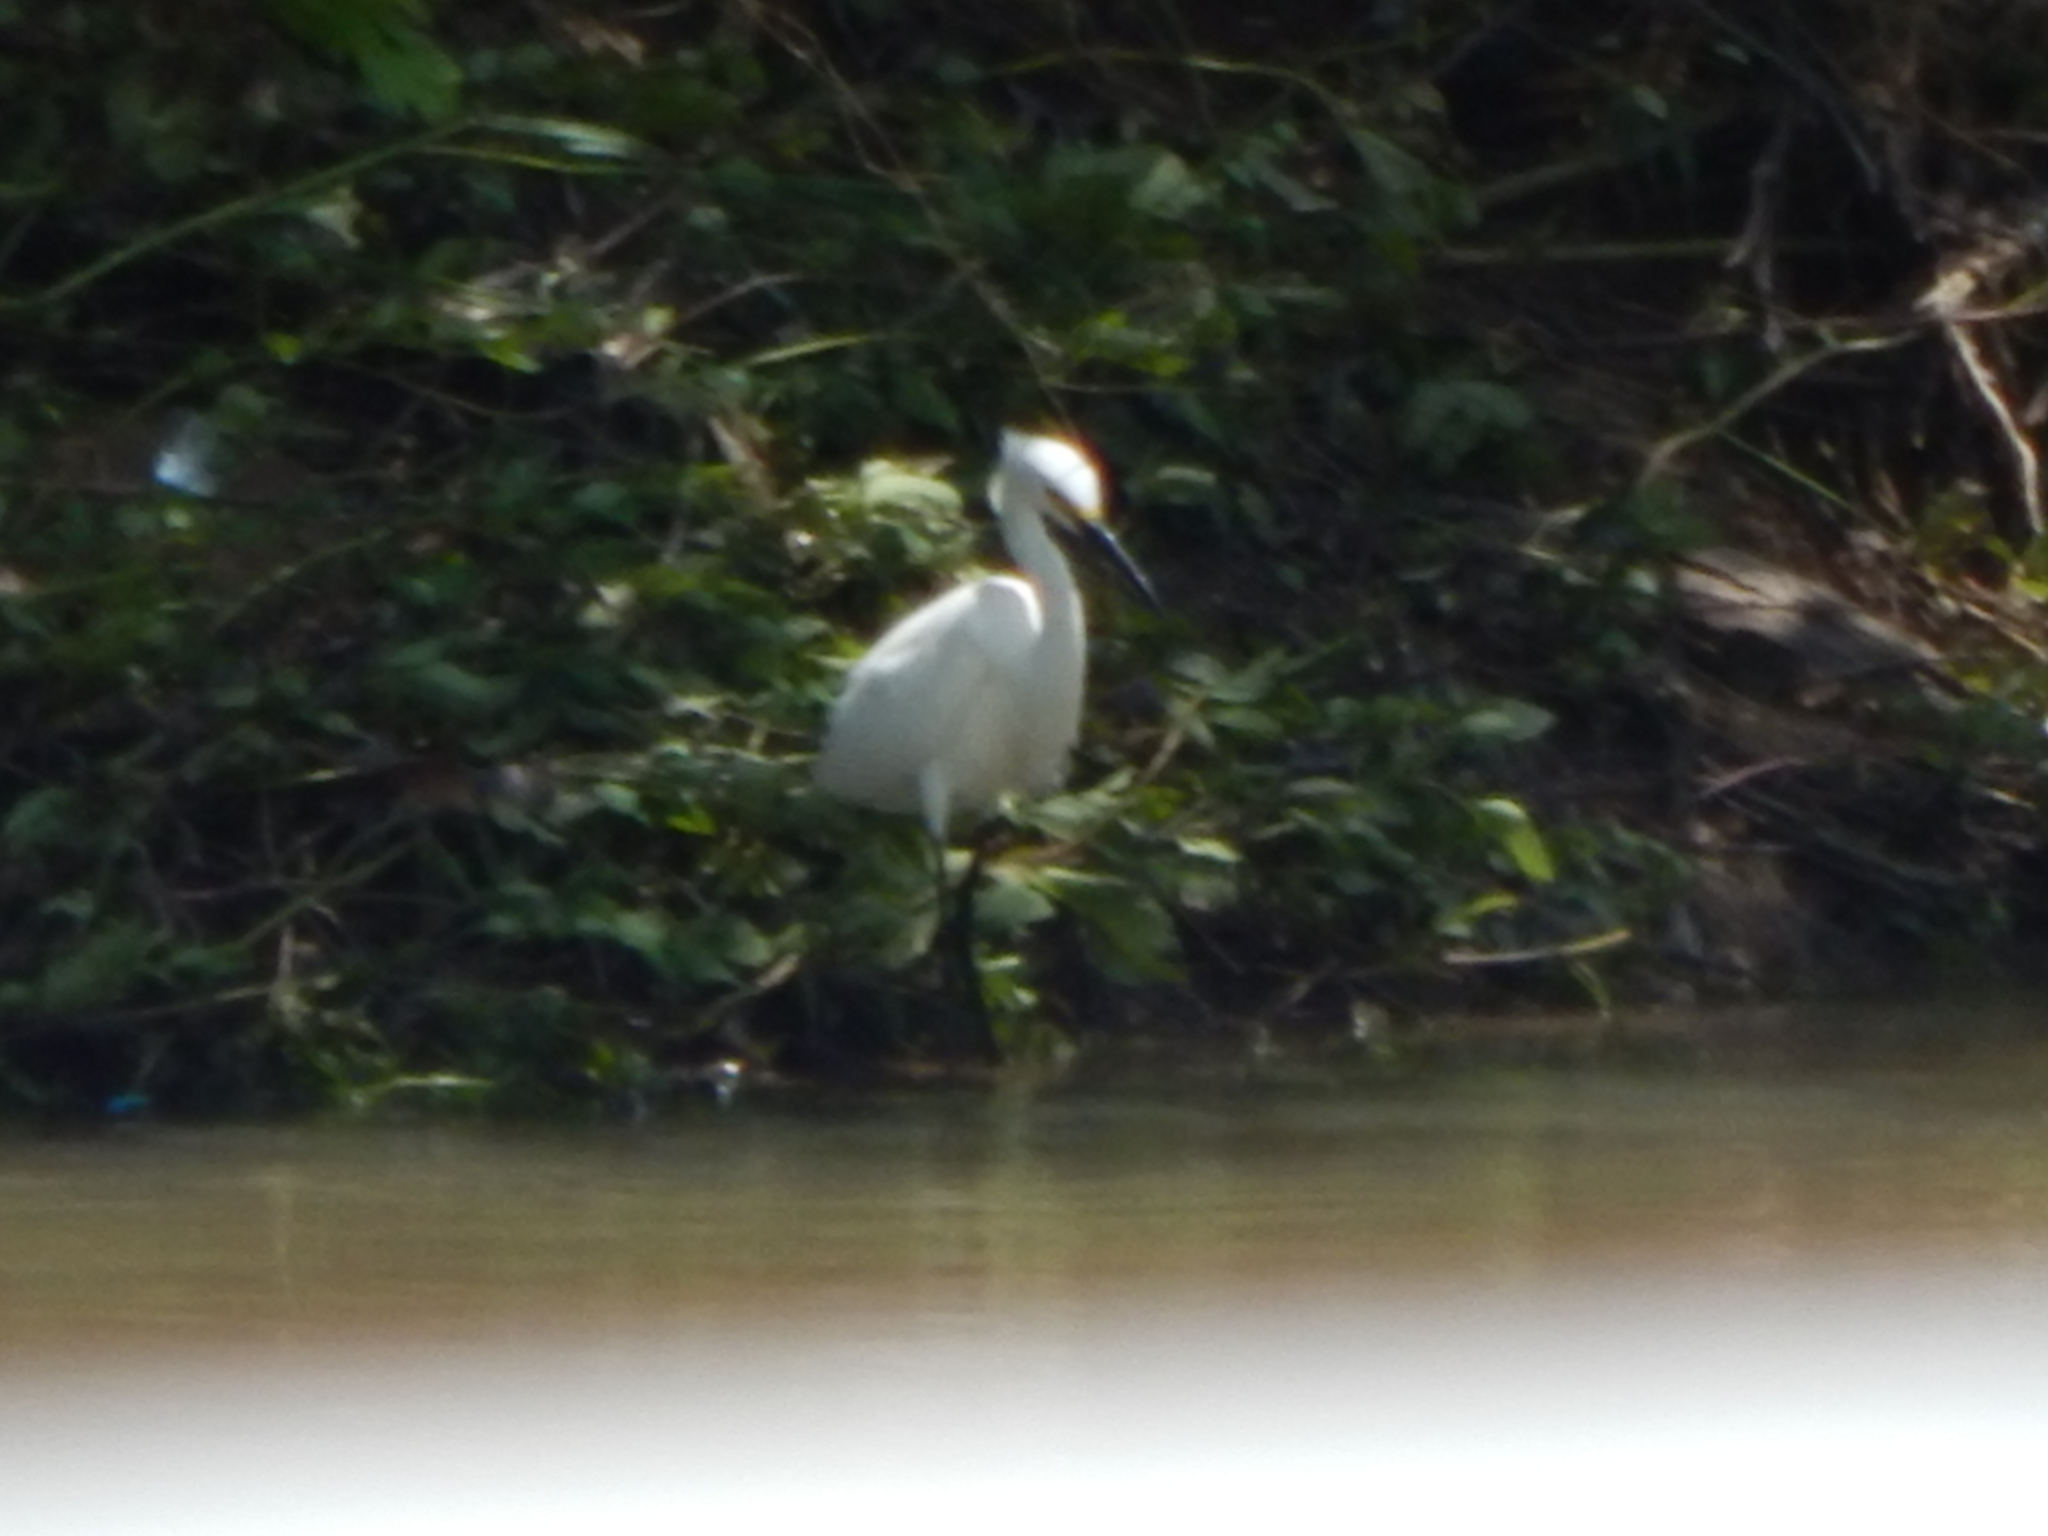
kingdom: Animalia
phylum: Chordata
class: Aves
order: Pelecaniformes
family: Ardeidae
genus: Egretta
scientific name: Egretta thula
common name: Snowy egret
